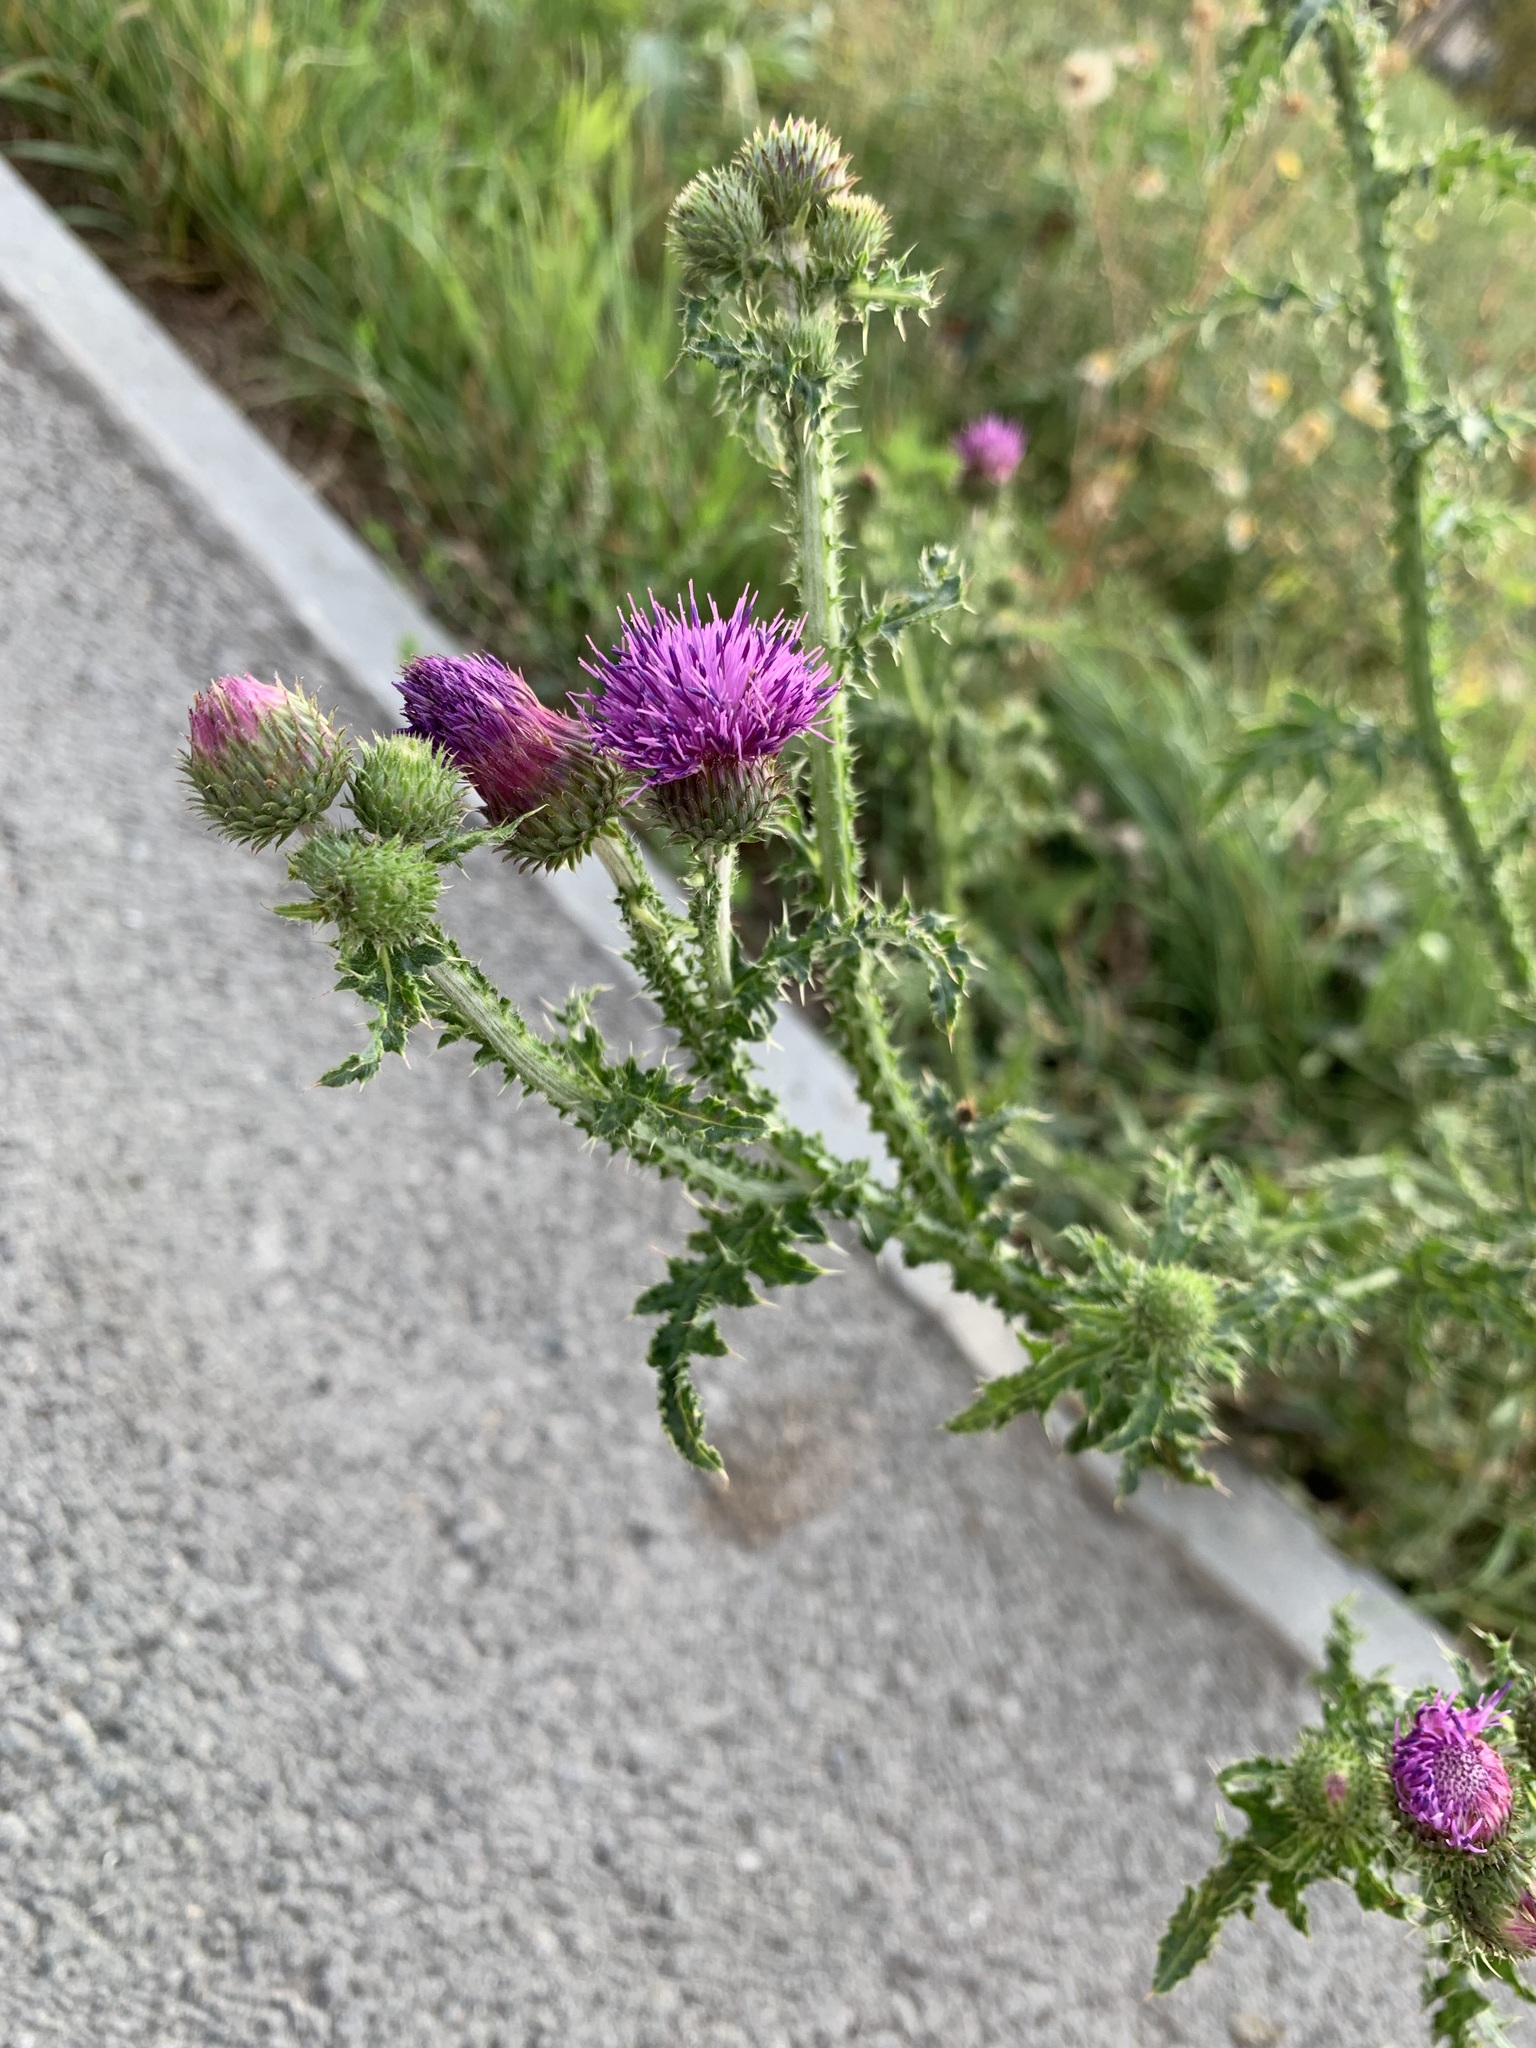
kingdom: Plantae
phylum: Tracheophyta
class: Magnoliopsida
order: Asterales
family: Asteraceae
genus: Carduus
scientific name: Carduus crispus
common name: Welted thistle
